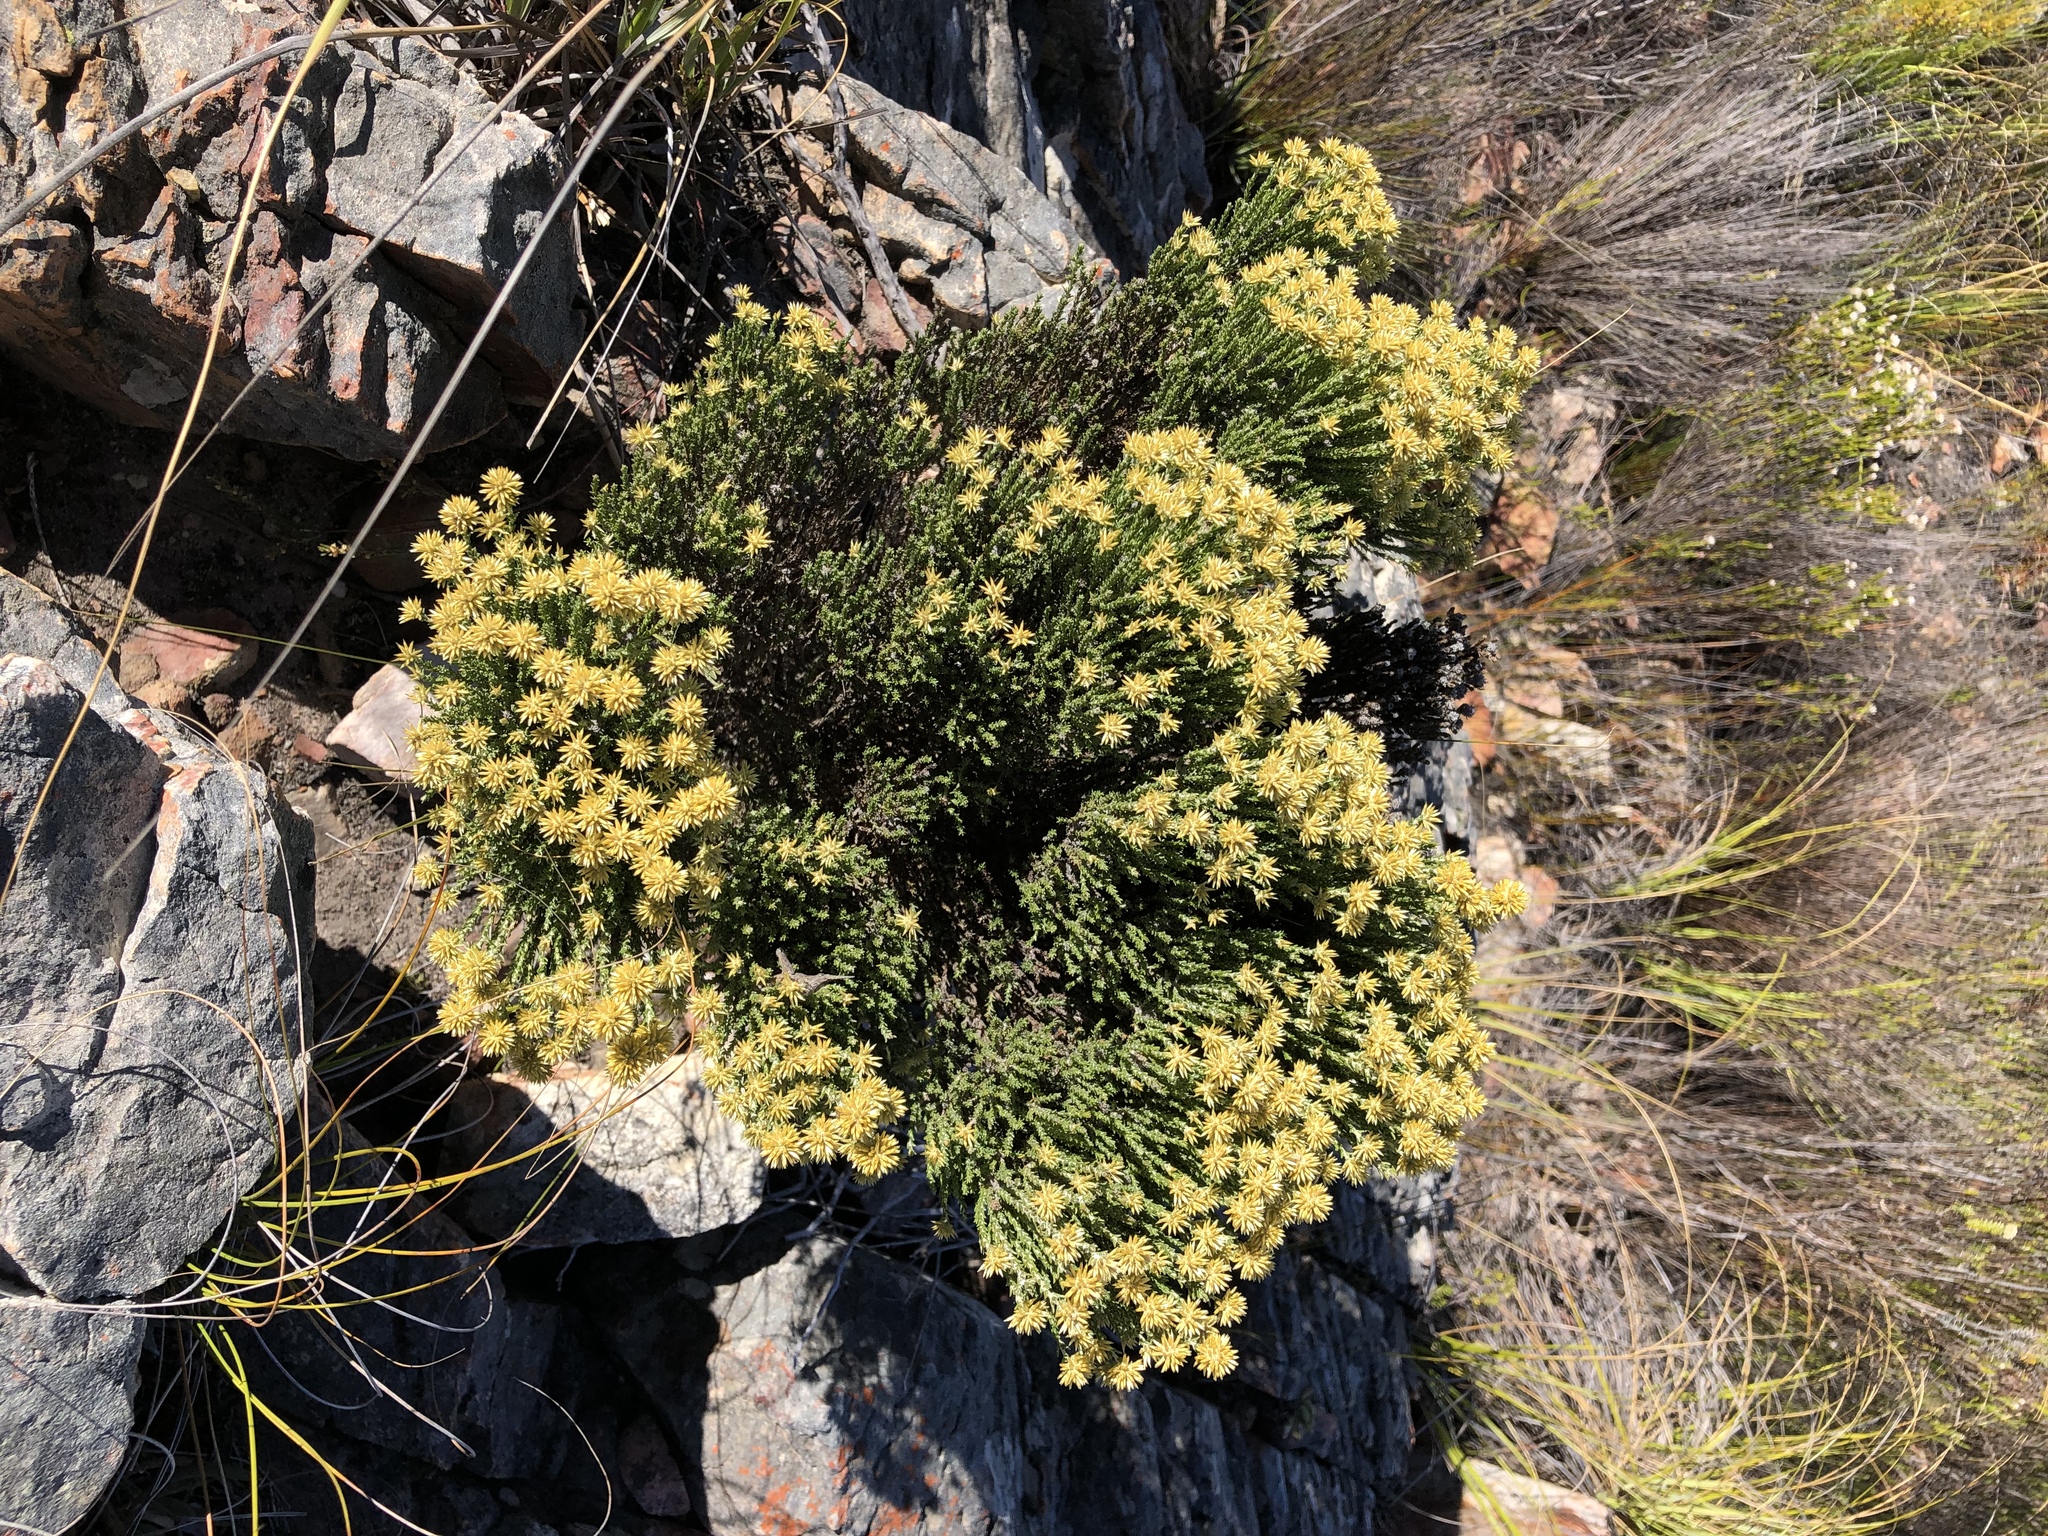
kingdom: Plantae
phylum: Tracheophyta
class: Magnoliopsida
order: Asterales
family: Asteraceae
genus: Seriphium
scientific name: Seriphium spirale
